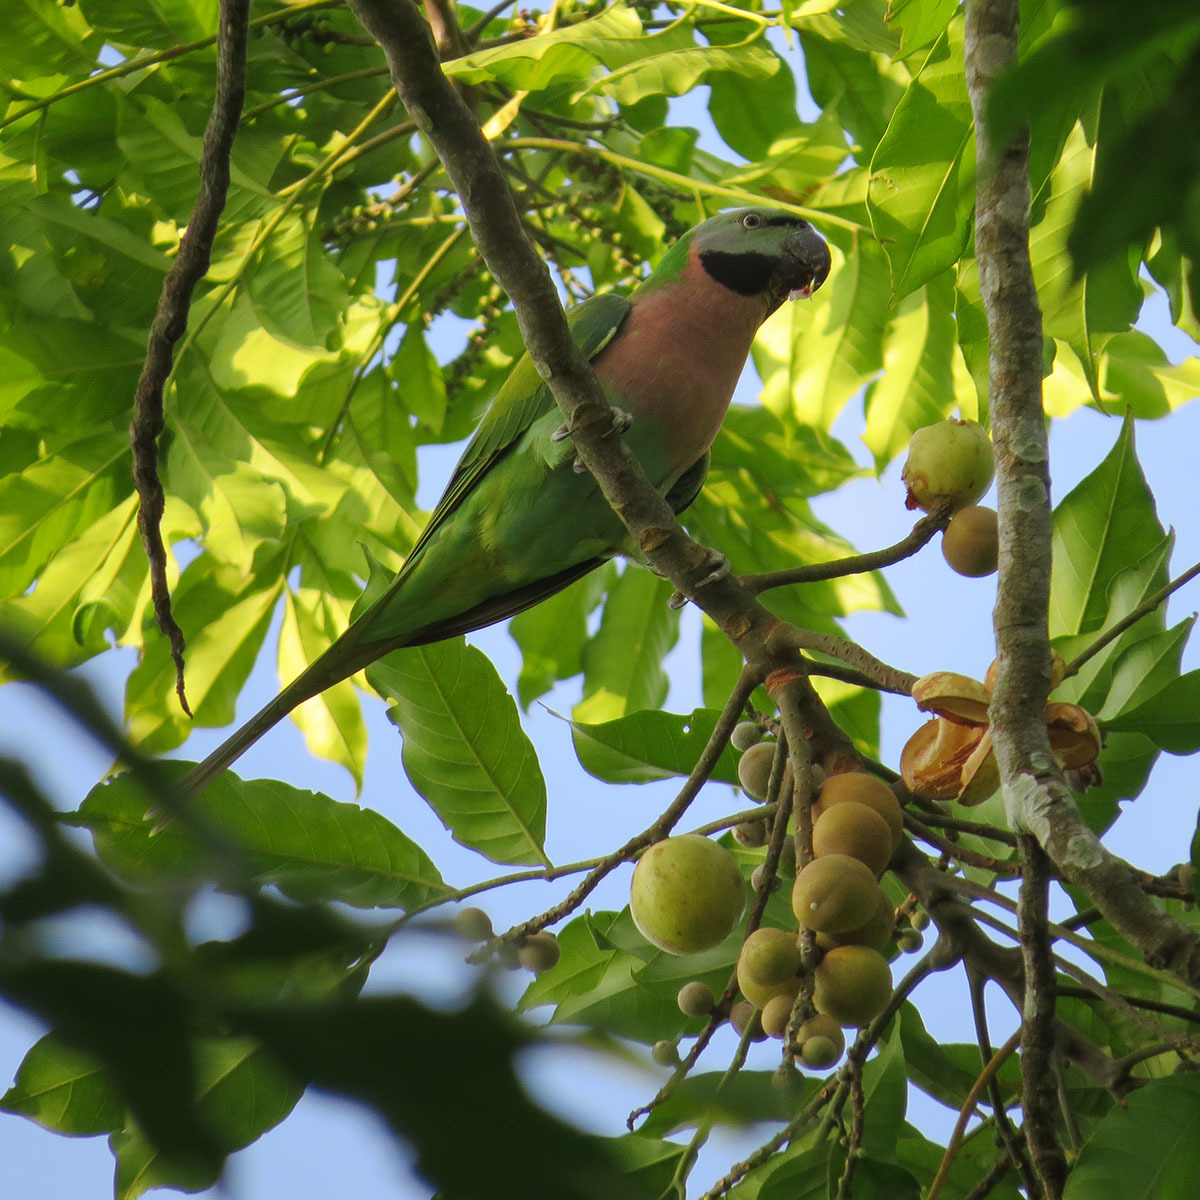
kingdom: Animalia
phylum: Chordata
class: Aves
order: Psittaciformes
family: Psittacidae
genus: Psittacula
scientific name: Psittacula alexandri
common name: Red-breasted parakeet
